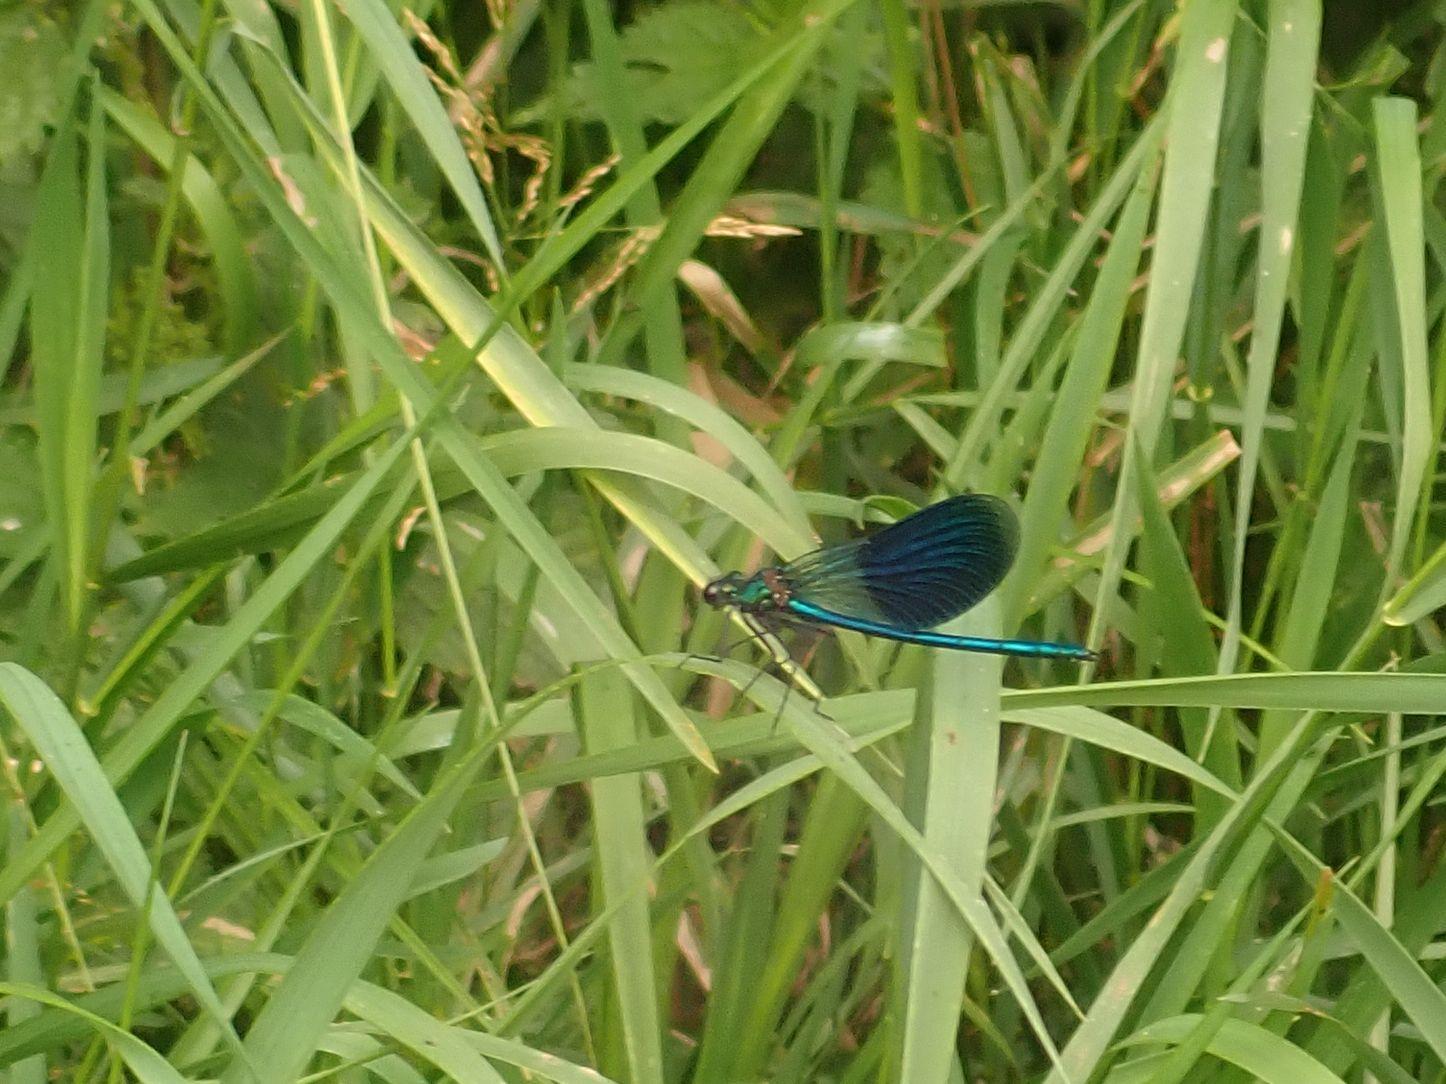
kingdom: Animalia
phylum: Arthropoda
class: Insecta
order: Odonata
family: Calopterygidae
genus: Calopteryx
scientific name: Calopteryx splendens
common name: Banded demoiselle
